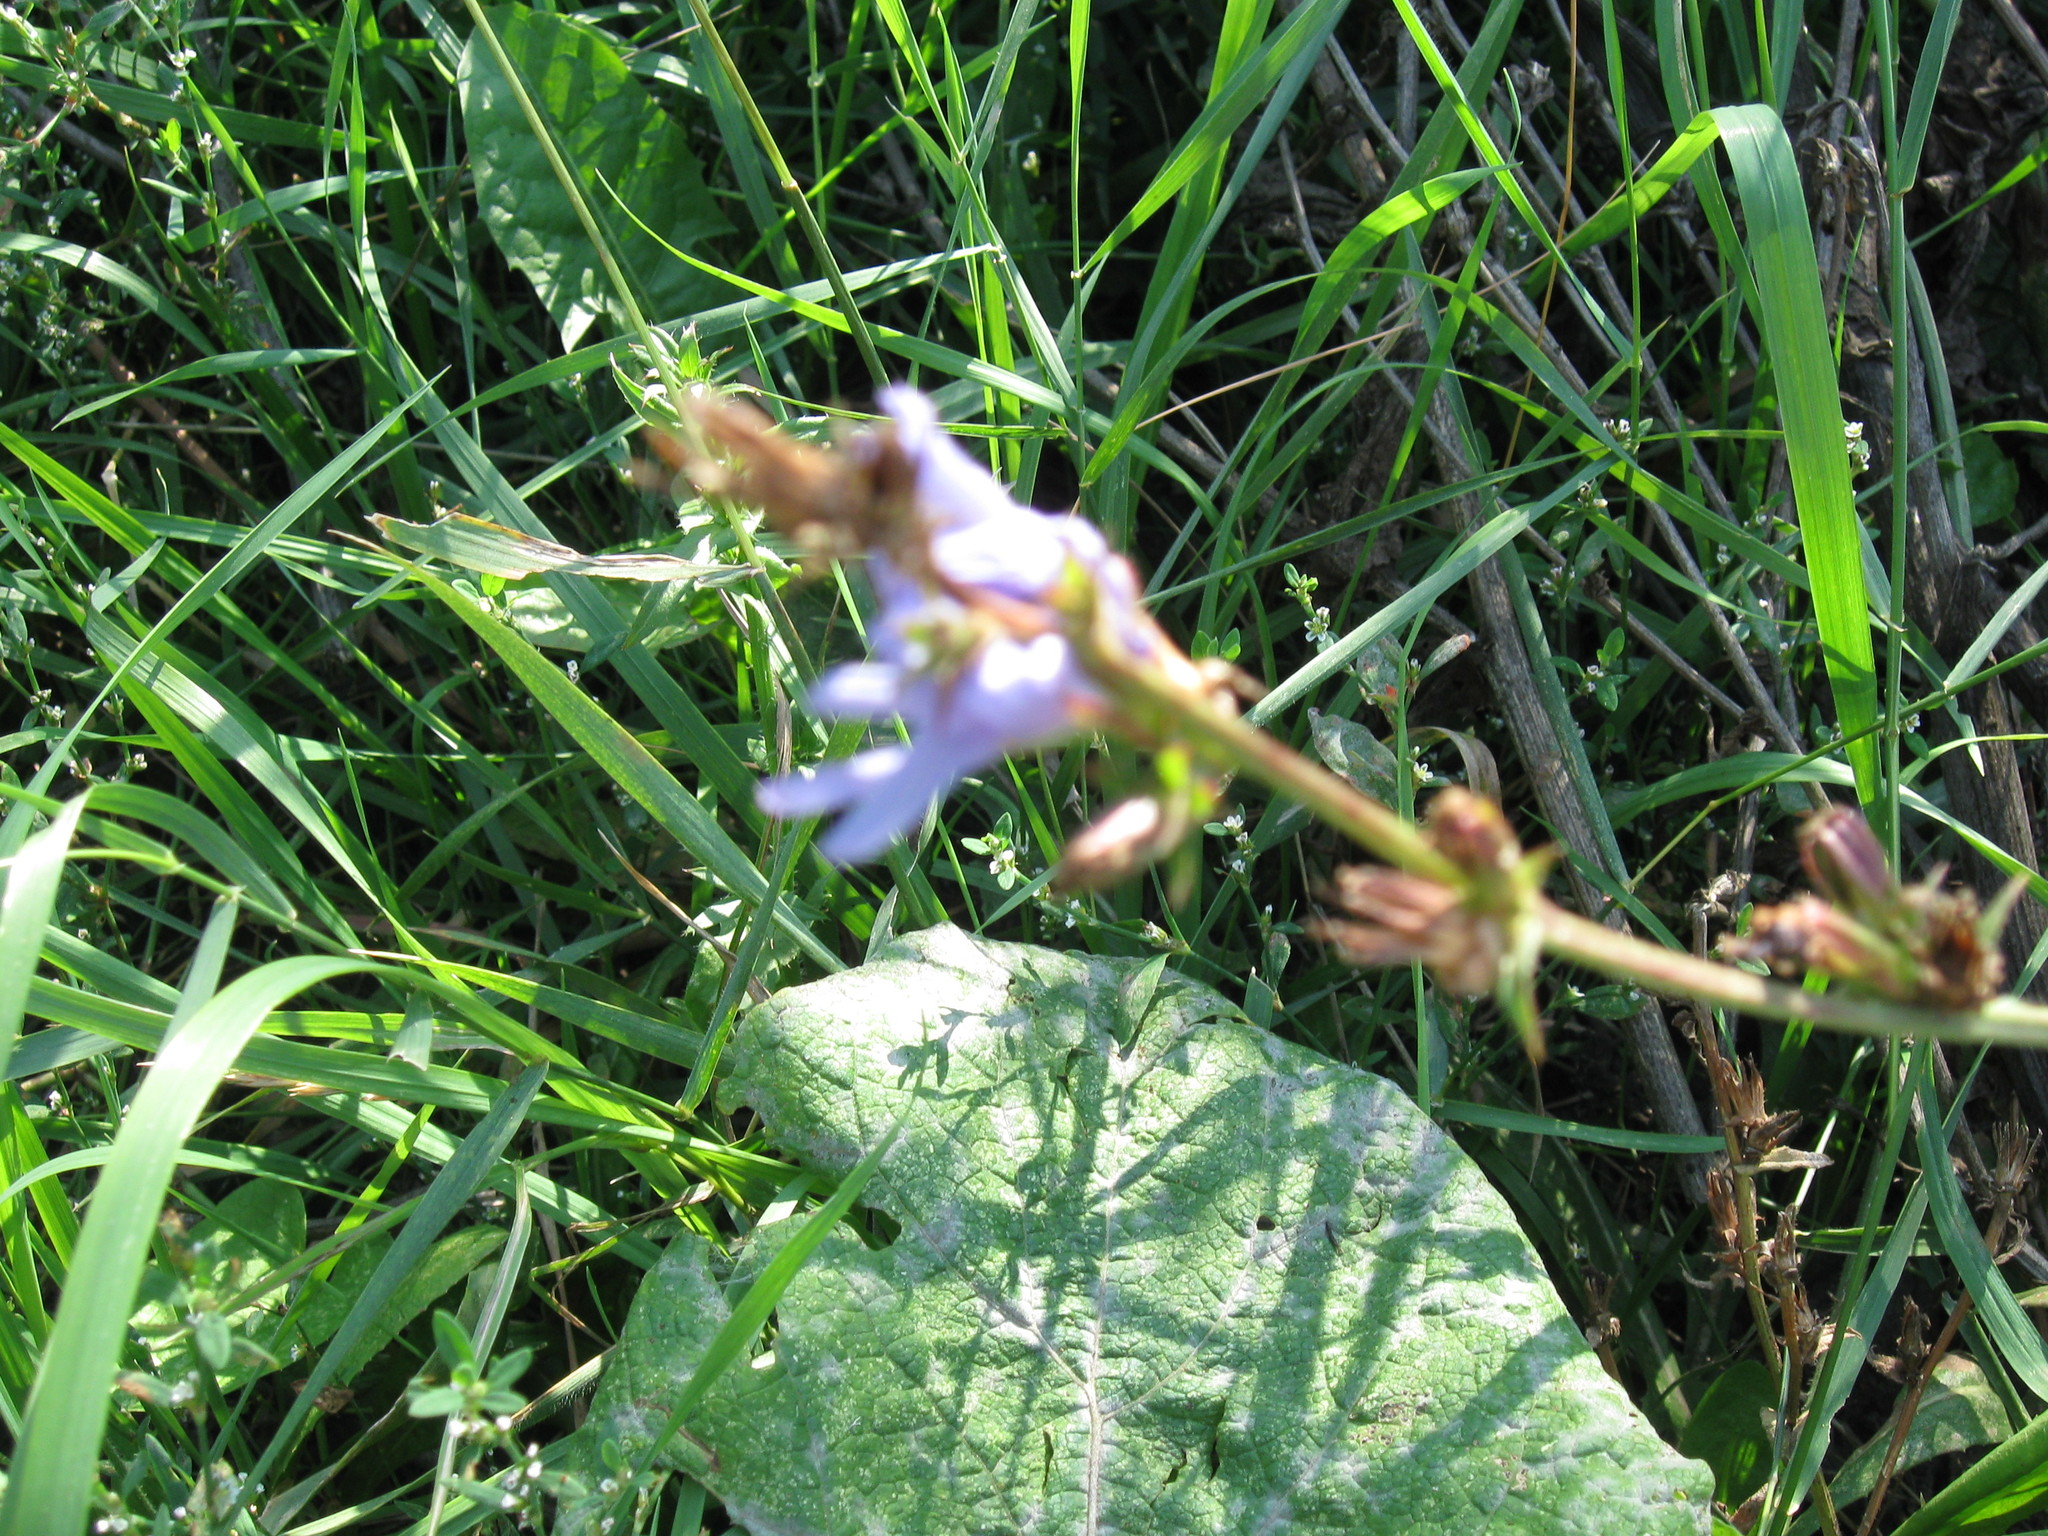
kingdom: Plantae
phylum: Tracheophyta
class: Magnoliopsida
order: Asterales
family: Asteraceae
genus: Cichorium
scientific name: Cichorium intybus
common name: Chicory
